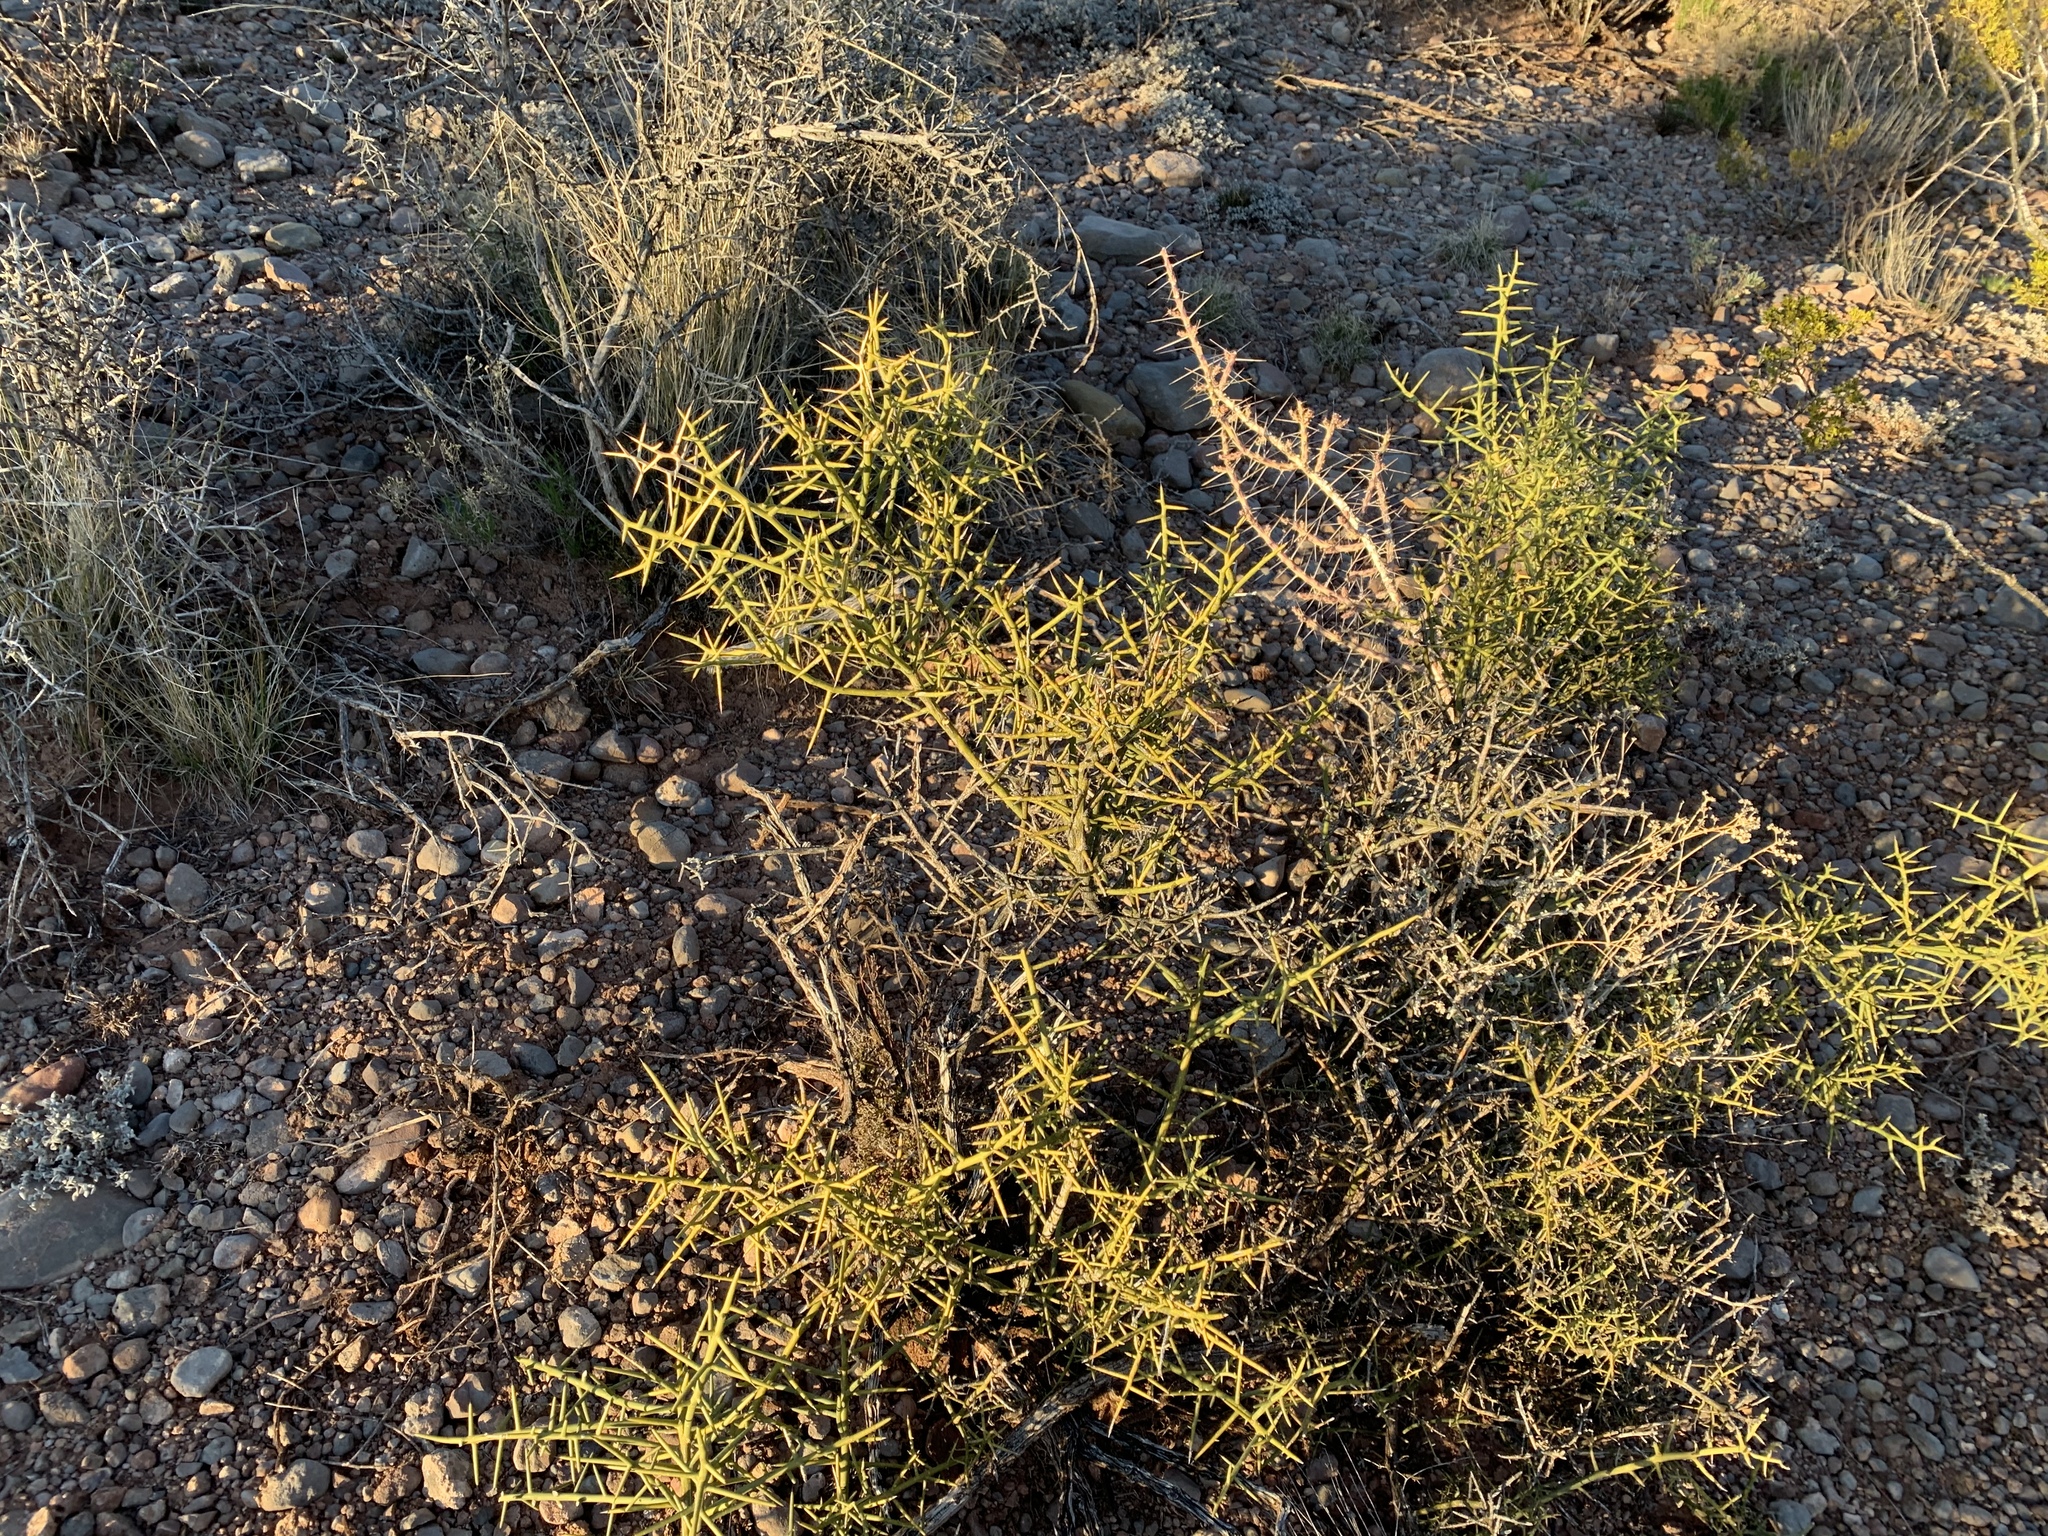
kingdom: Plantae
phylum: Tracheophyta
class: Magnoliopsida
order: Brassicales
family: Koeberliniaceae
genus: Koeberlinia
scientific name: Koeberlinia spinosa
